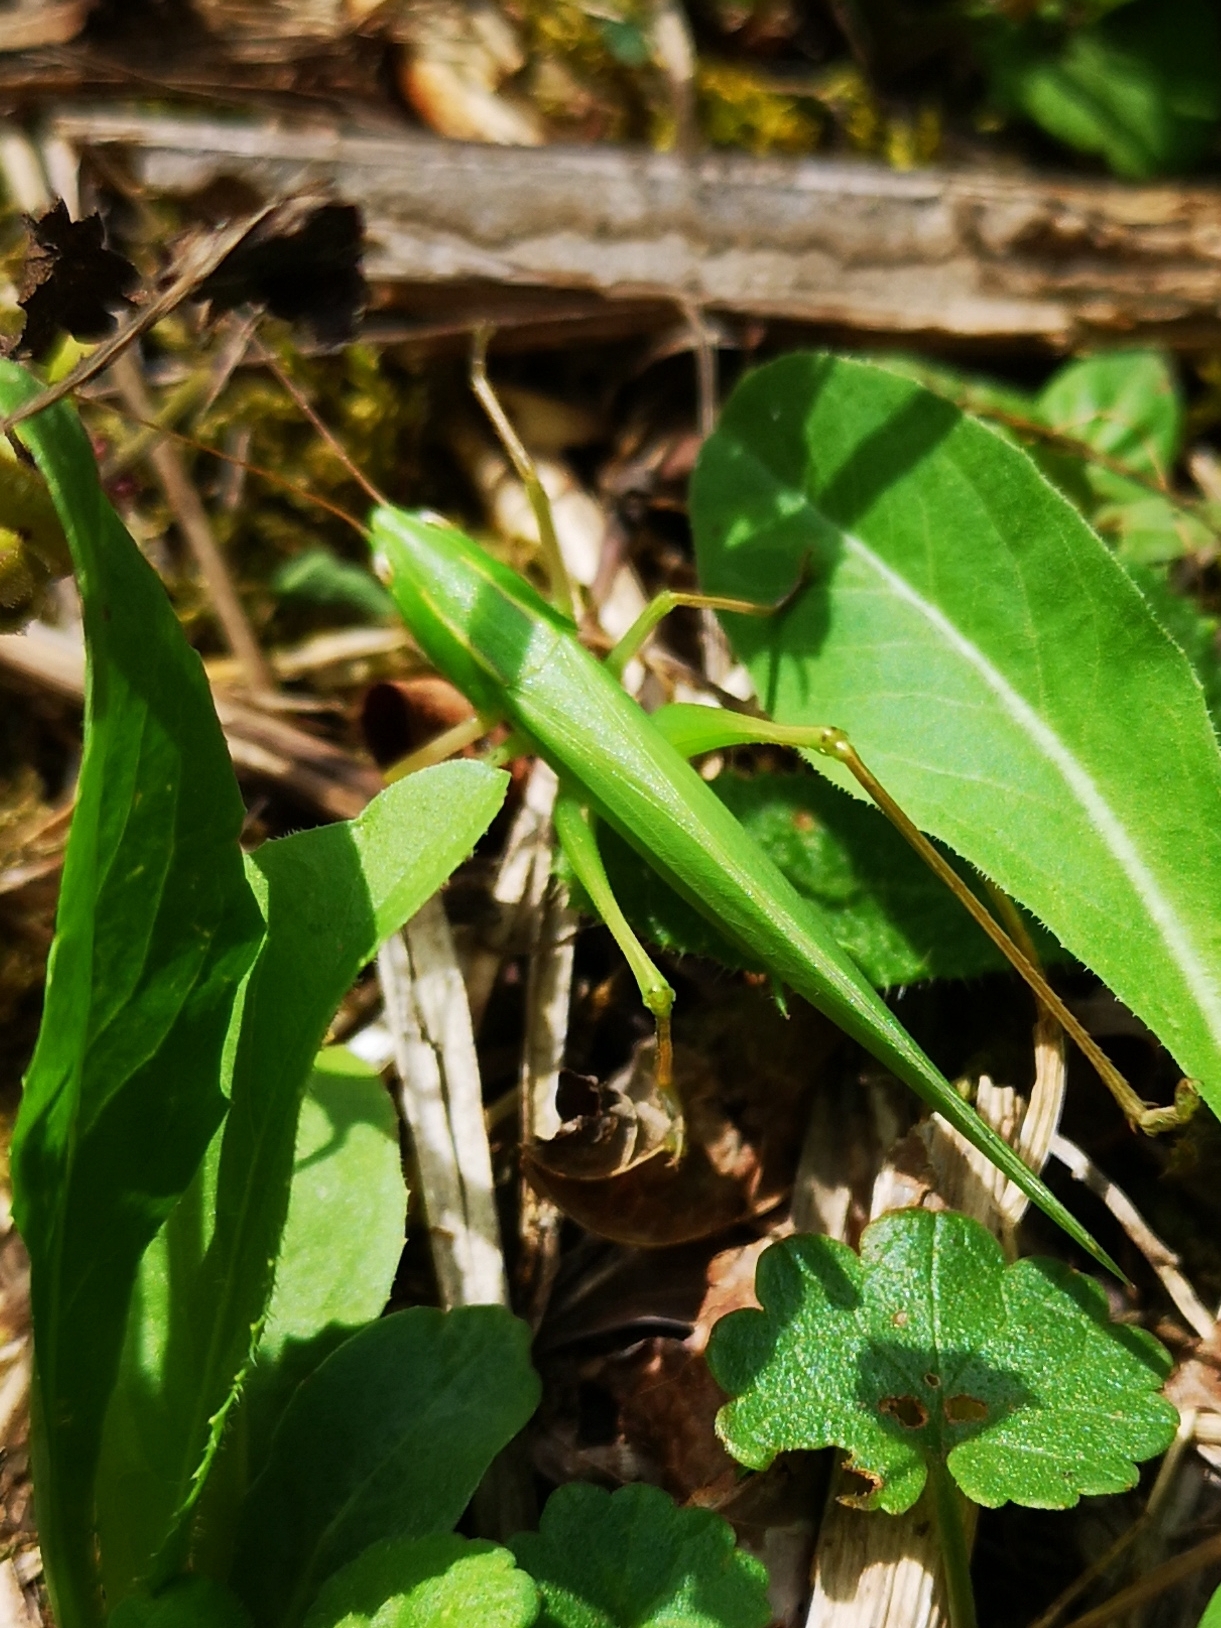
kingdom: Animalia
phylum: Arthropoda
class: Insecta
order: Orthoptera
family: Tettigoniidae
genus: Ruspolia
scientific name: Ruspolia nitidula
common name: Large conehead
